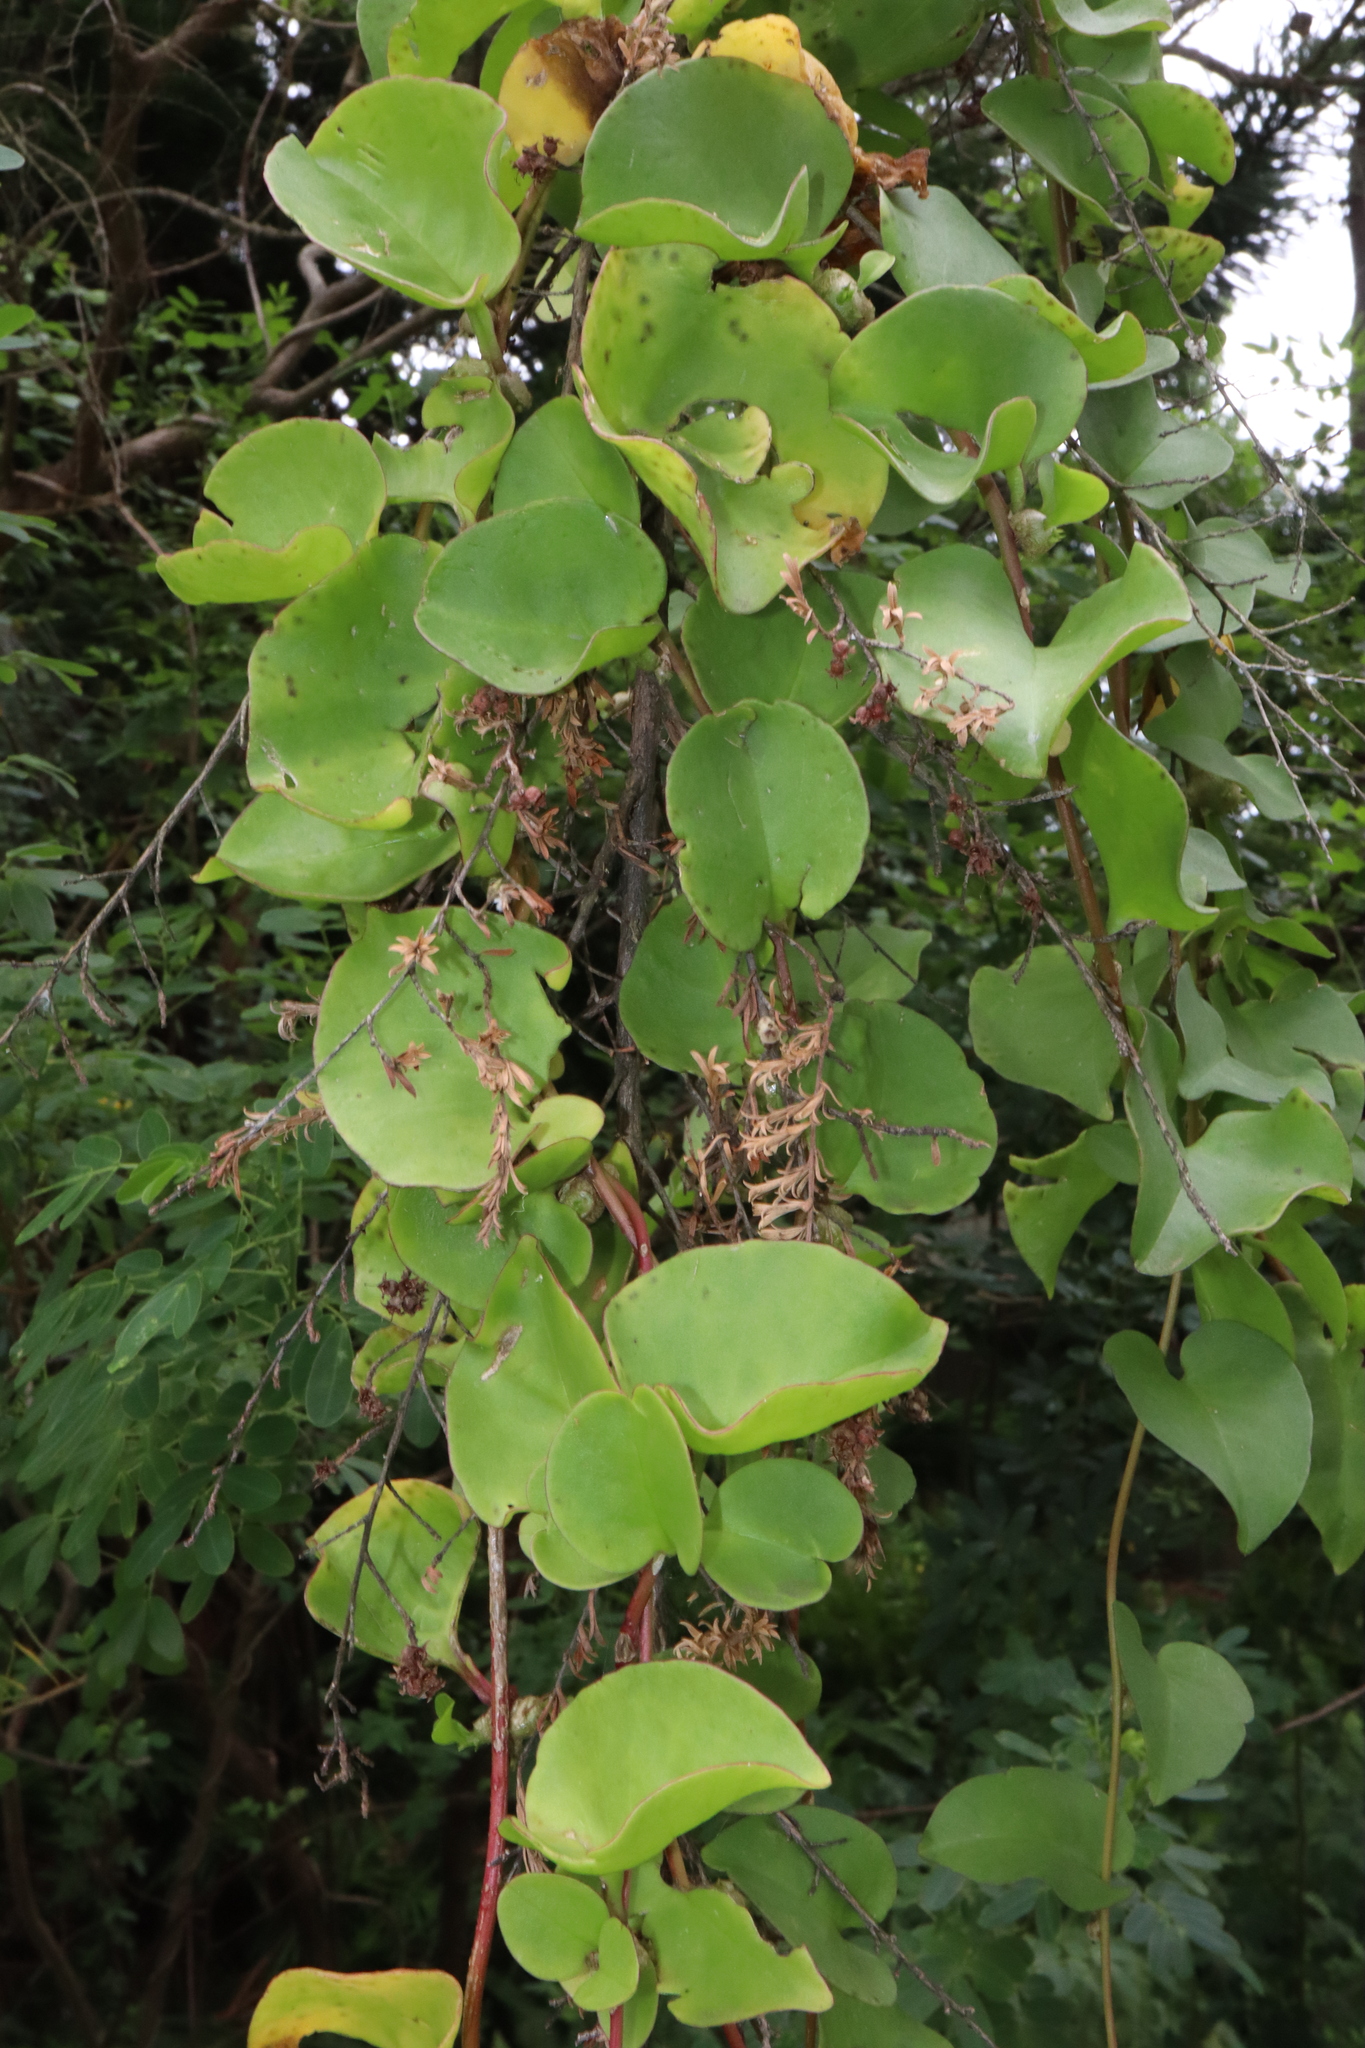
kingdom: Plantae
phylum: Tracheophyta
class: Magnoliopsida
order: Caryophyllales
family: Basellaceae
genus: Anredera
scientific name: Anredera cordifolia
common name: Heartleaf madeiravine
